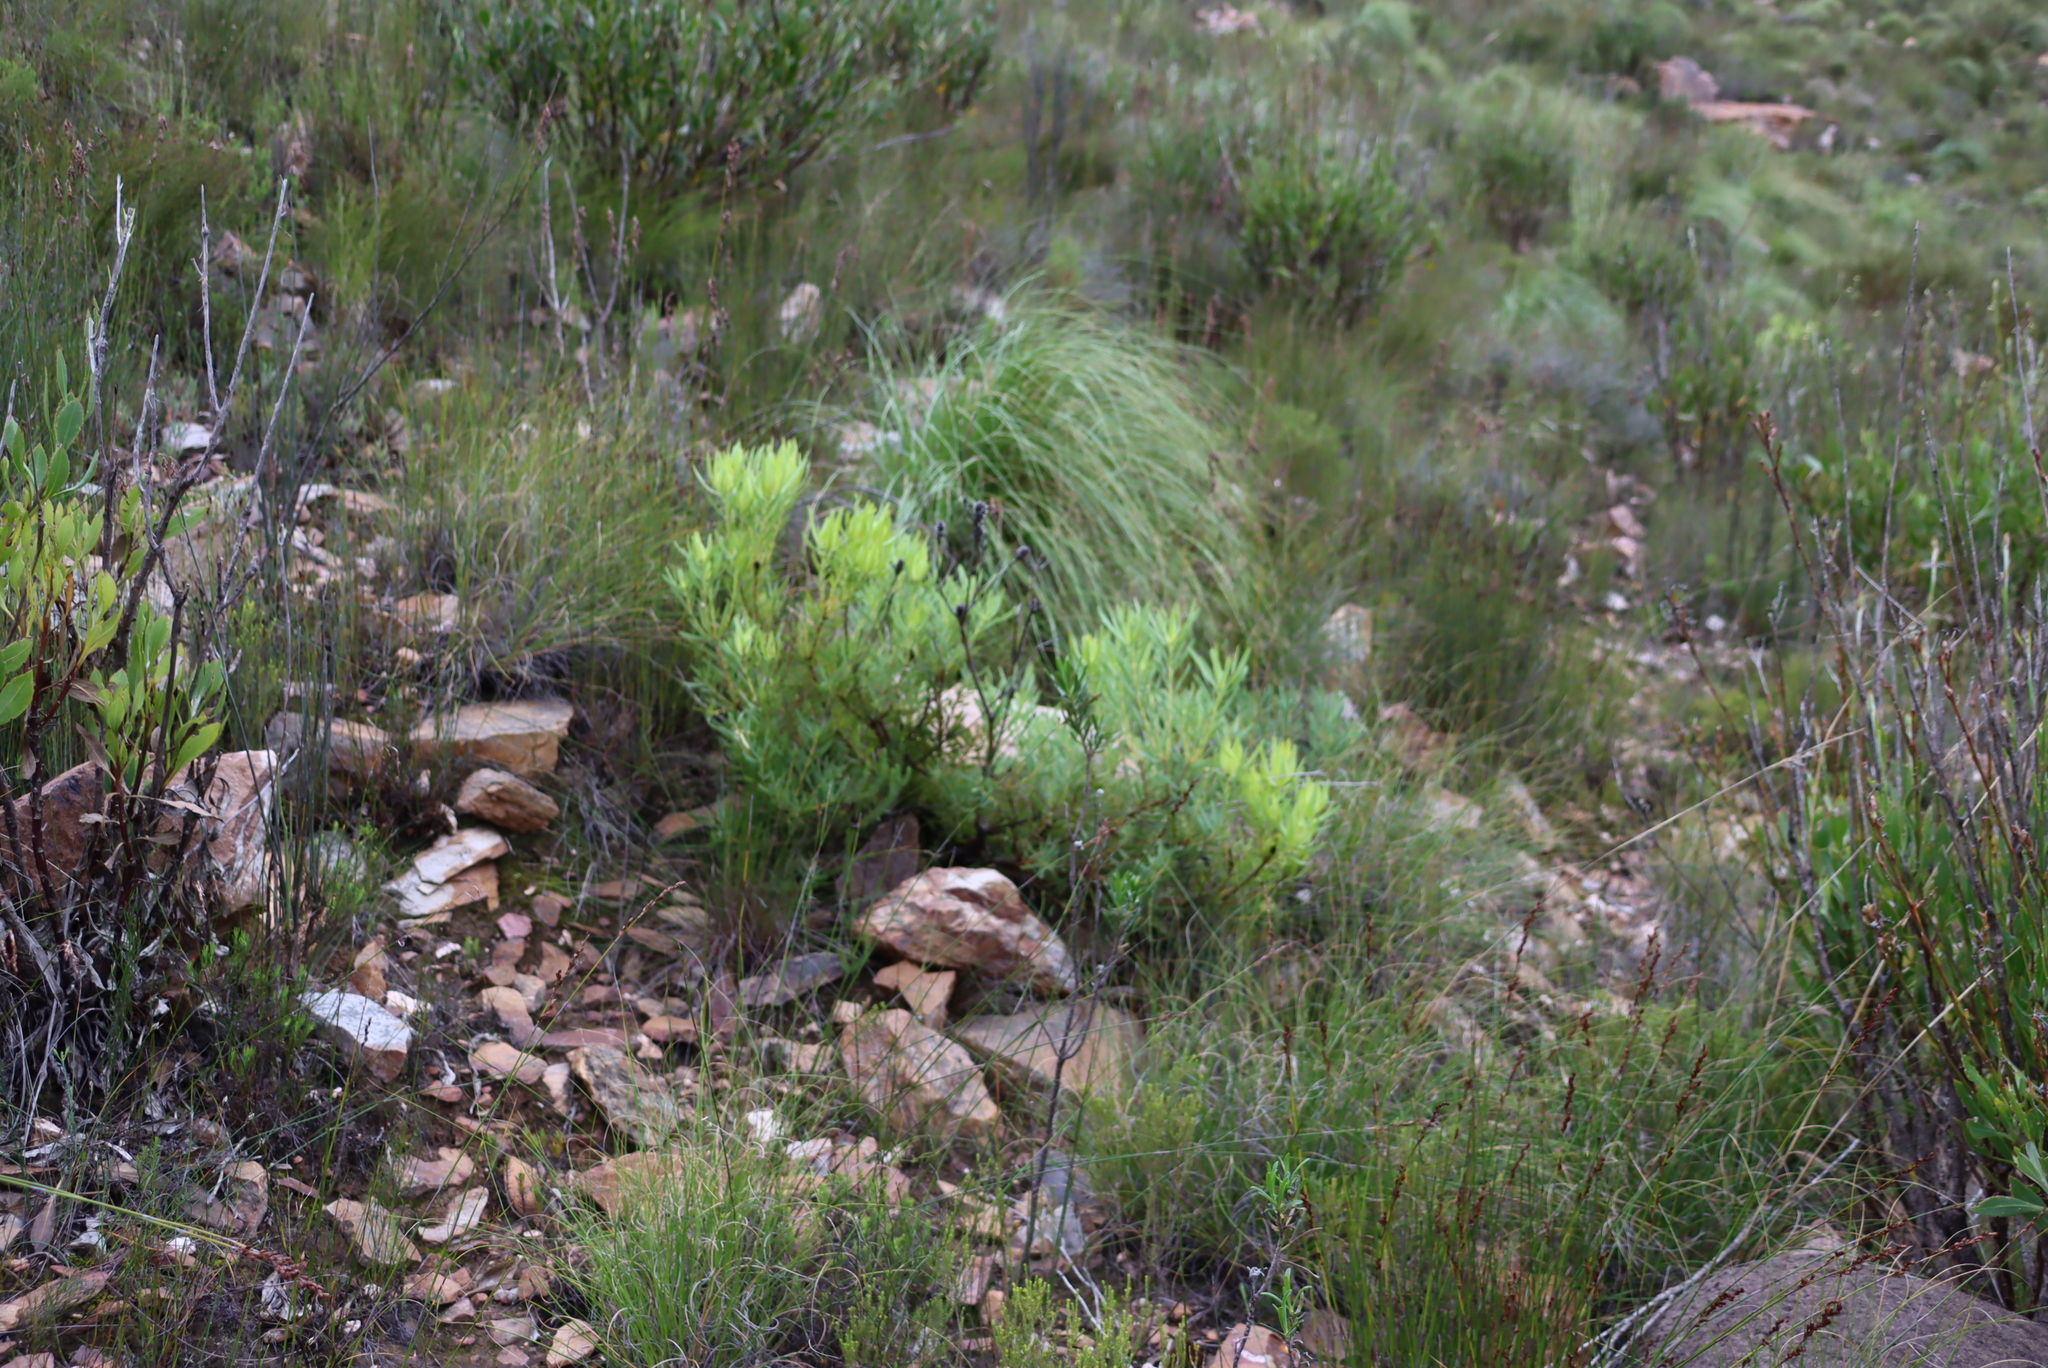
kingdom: Plantae
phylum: Tracheophyta
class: Magnoliopsida
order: Proteales
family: Proteaceae
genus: Leucadendron
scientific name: Leucadendron salignum
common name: Common sunshine conebush
